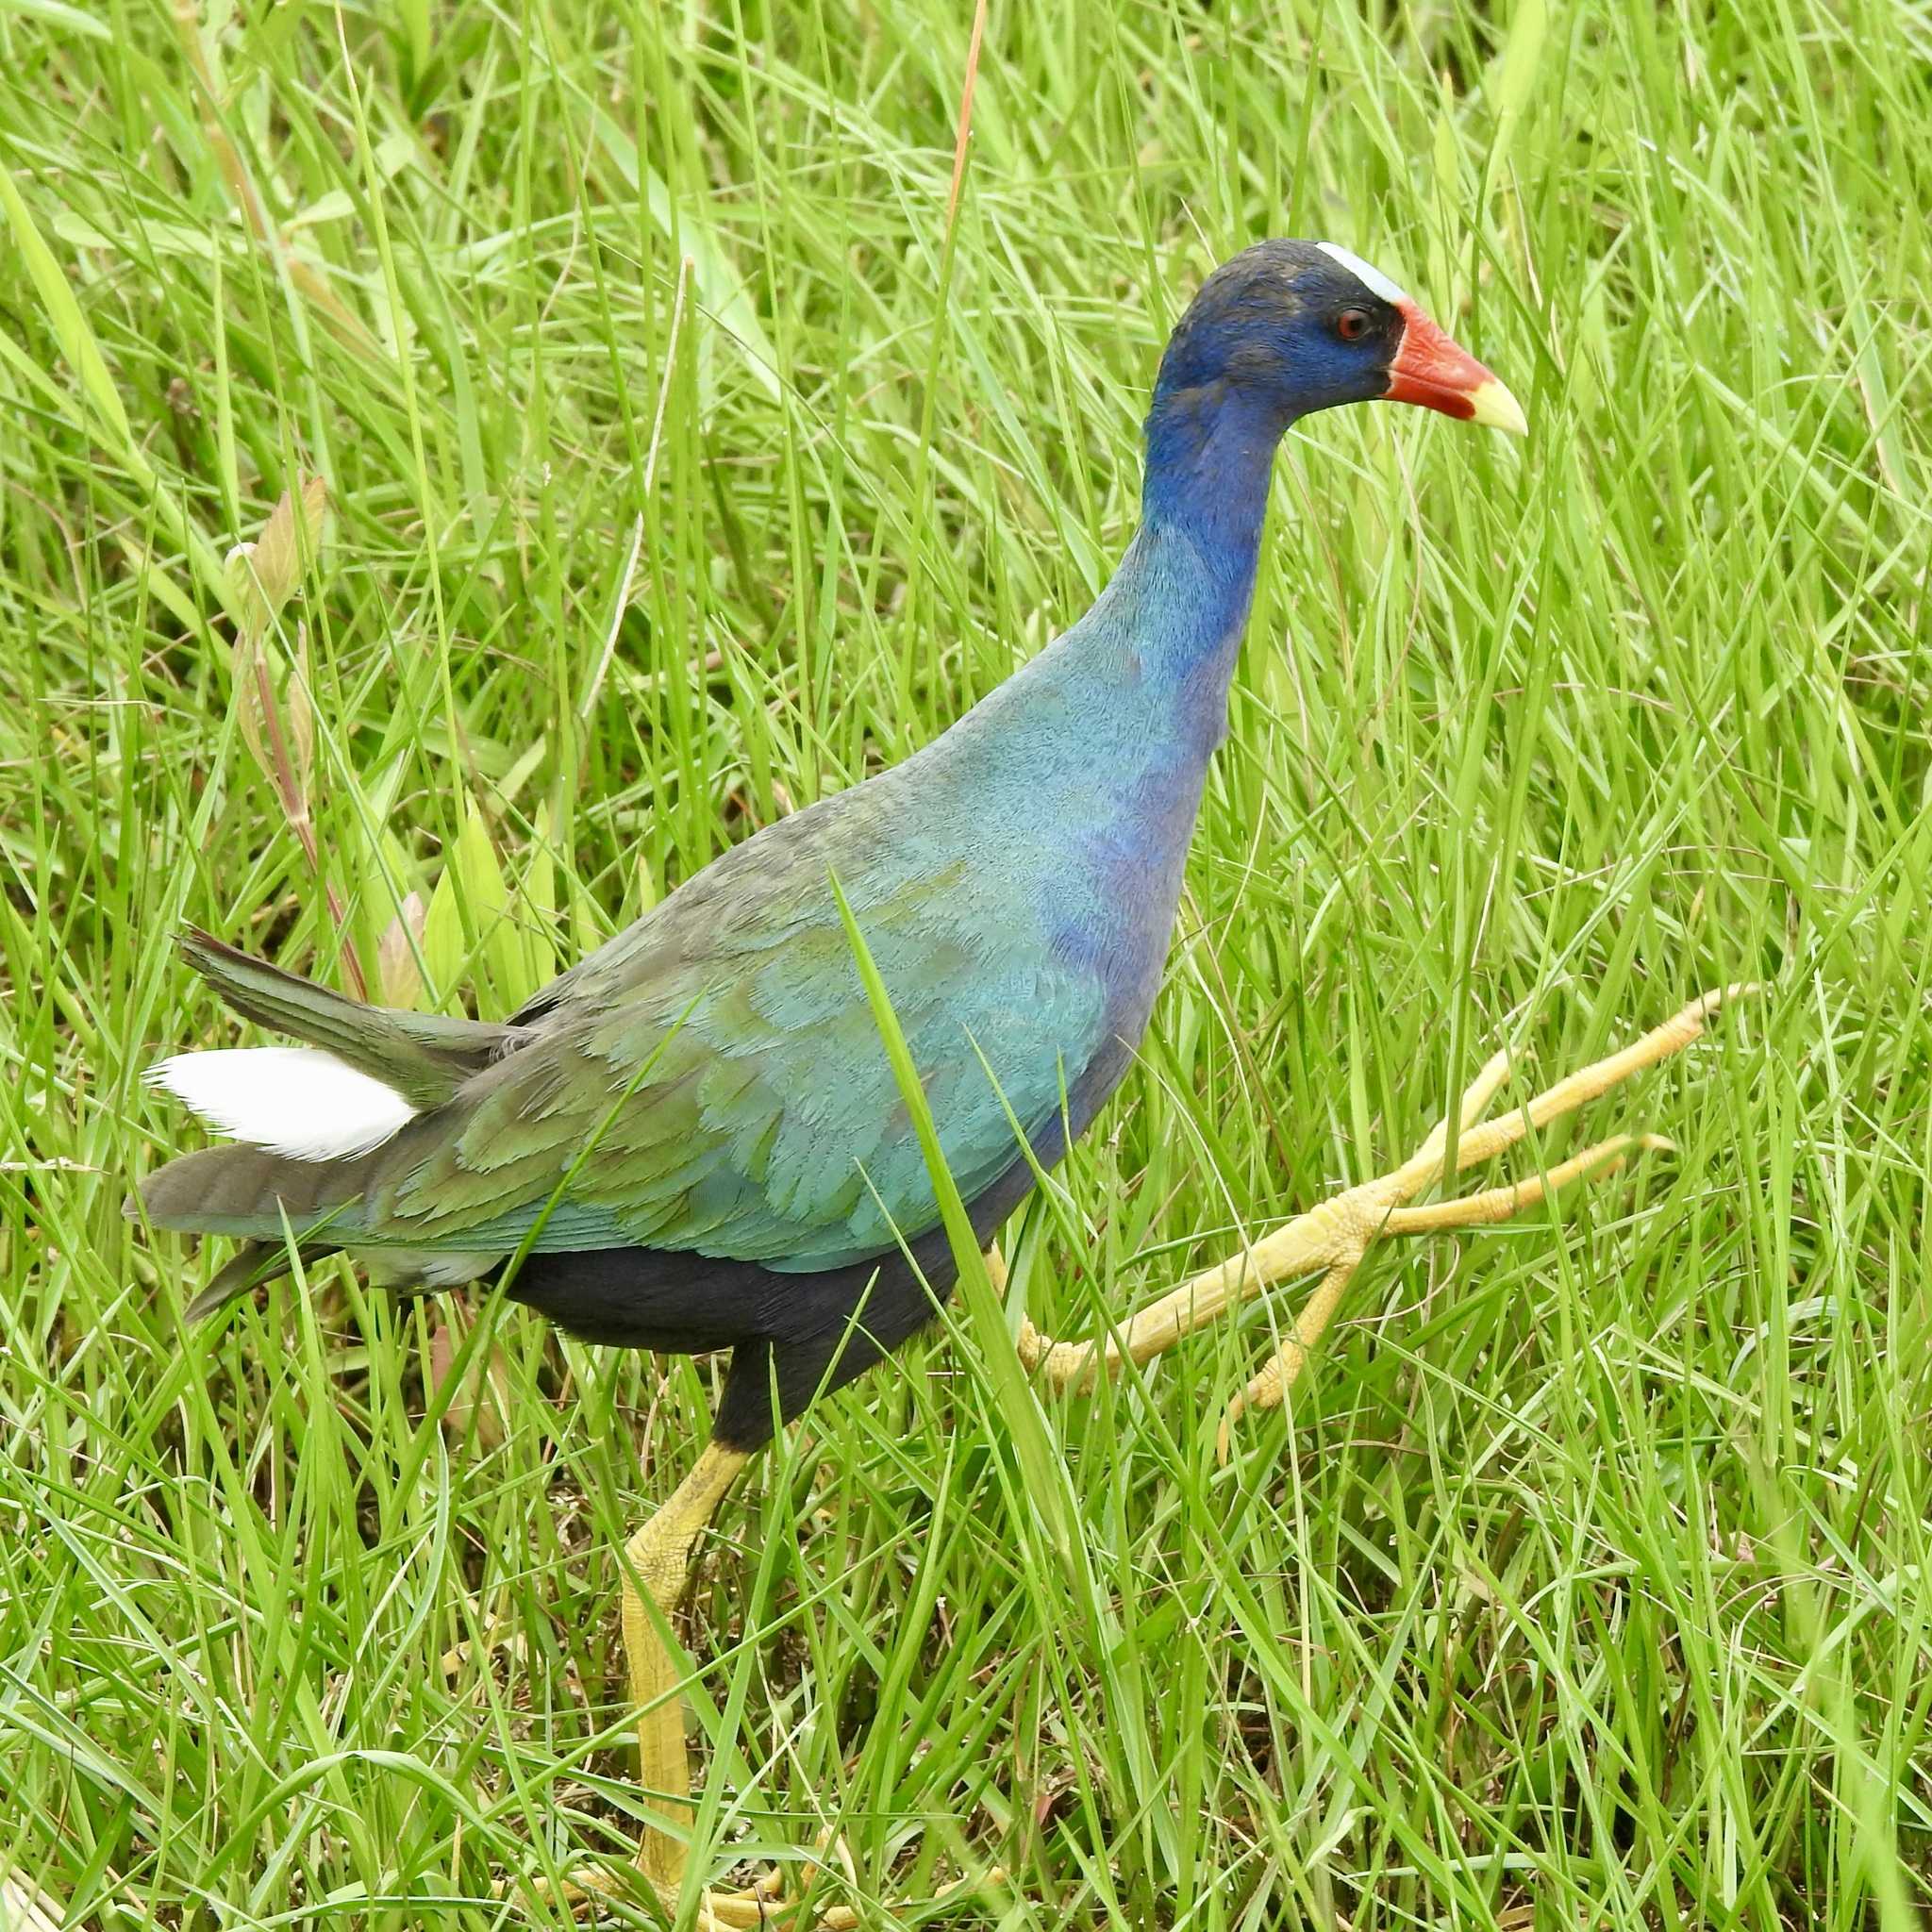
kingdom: Animalia
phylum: Chordata
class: Aves
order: Gruiformes
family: Rallidae
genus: Porphyrio
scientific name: Porphyrio martinica
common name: Purple gallinule
